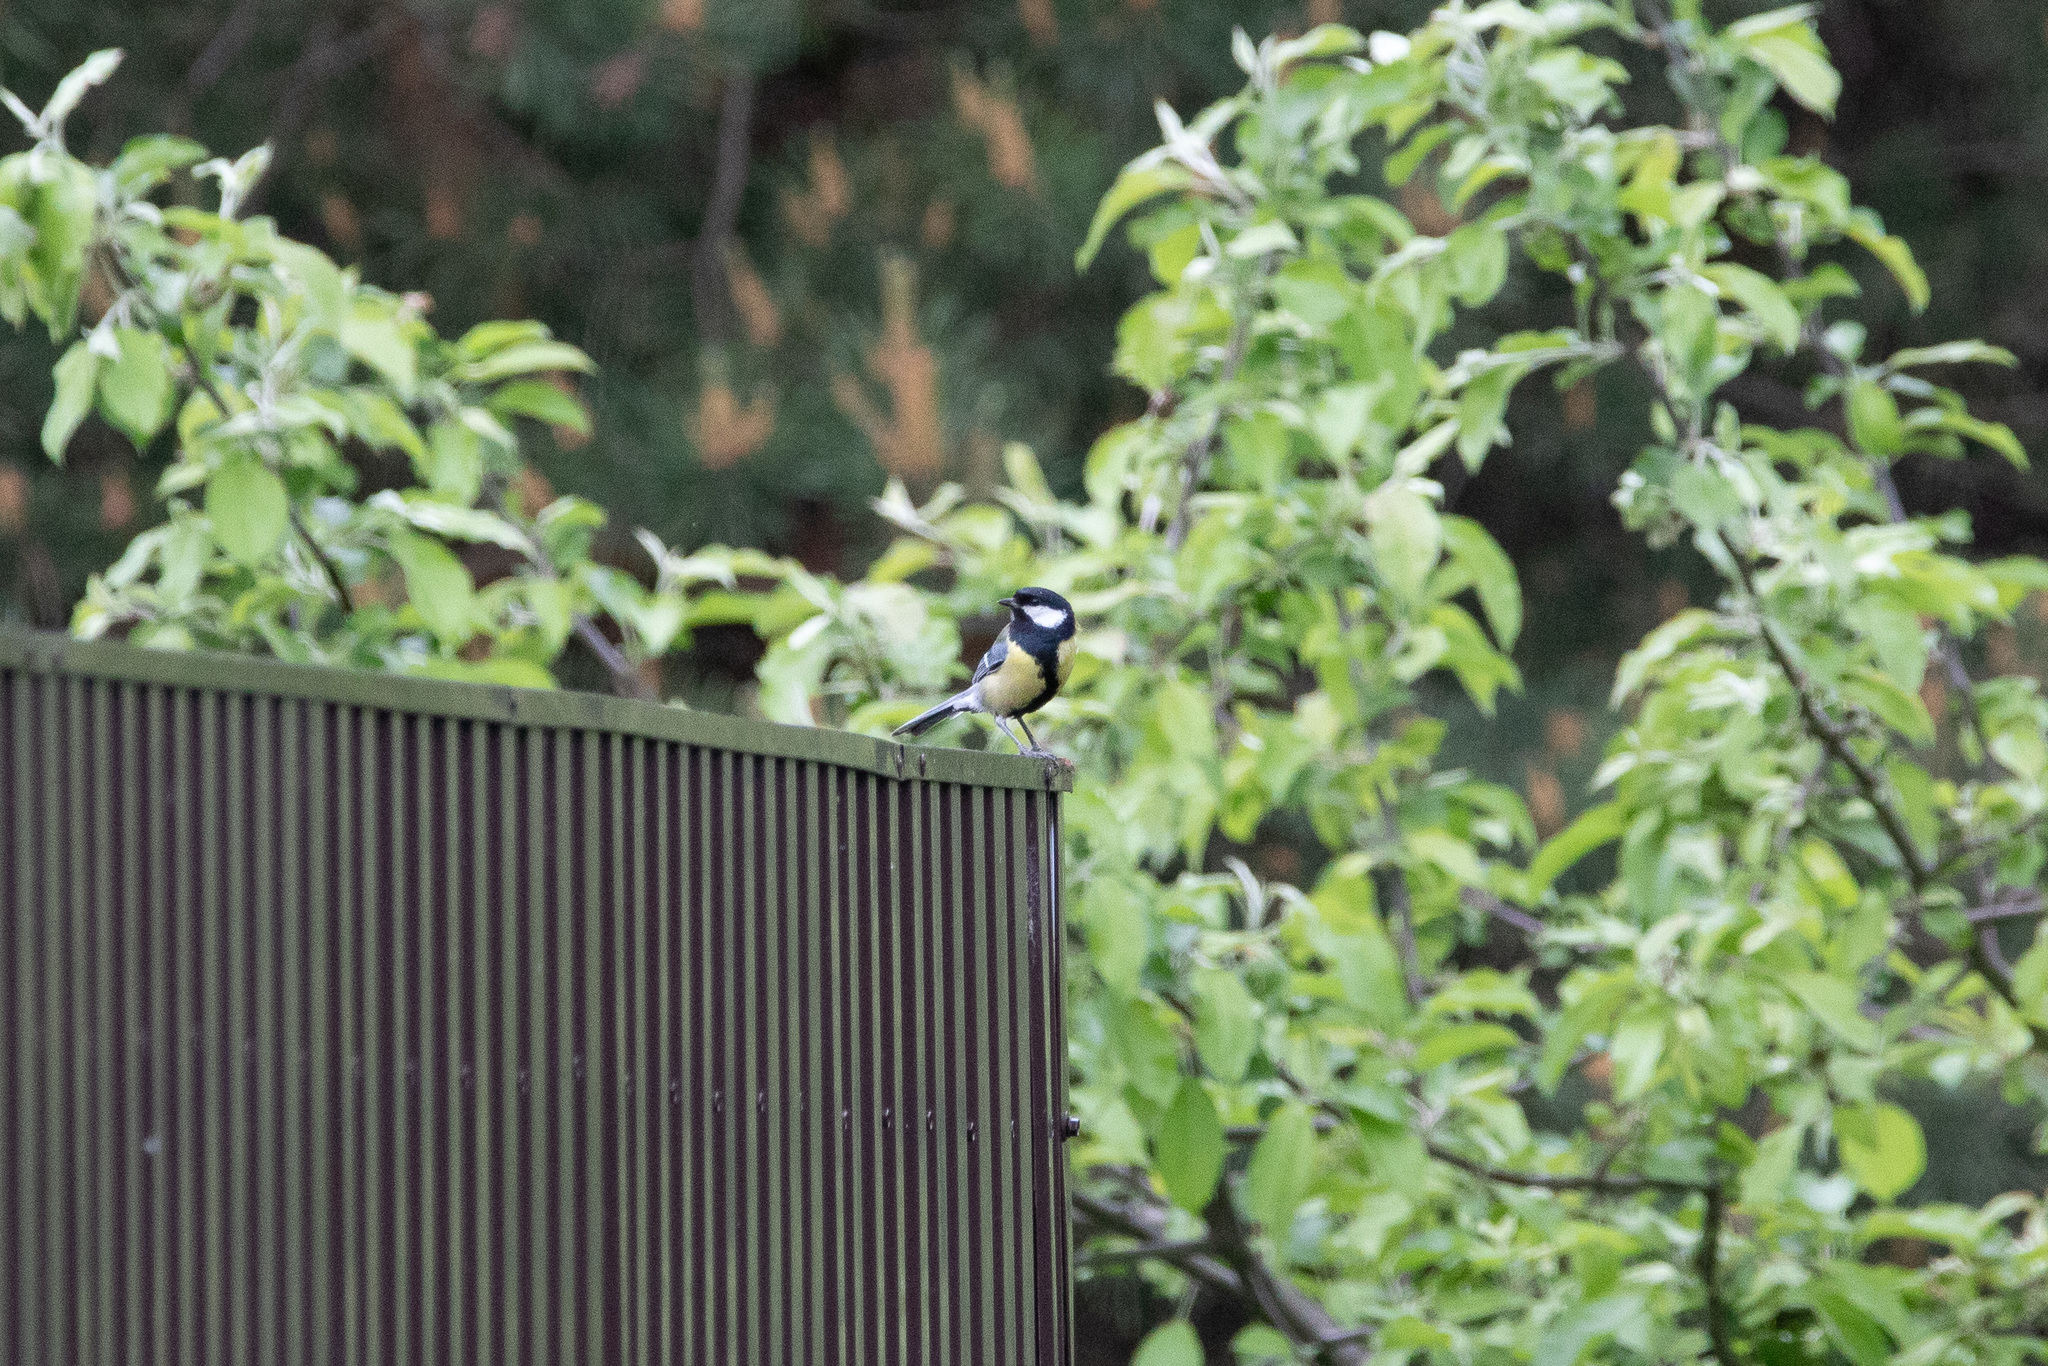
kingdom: Animalia
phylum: Chordata
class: Aves
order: Passeriformes
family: Paridae
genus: Parus
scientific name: Parus major
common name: Great tit
